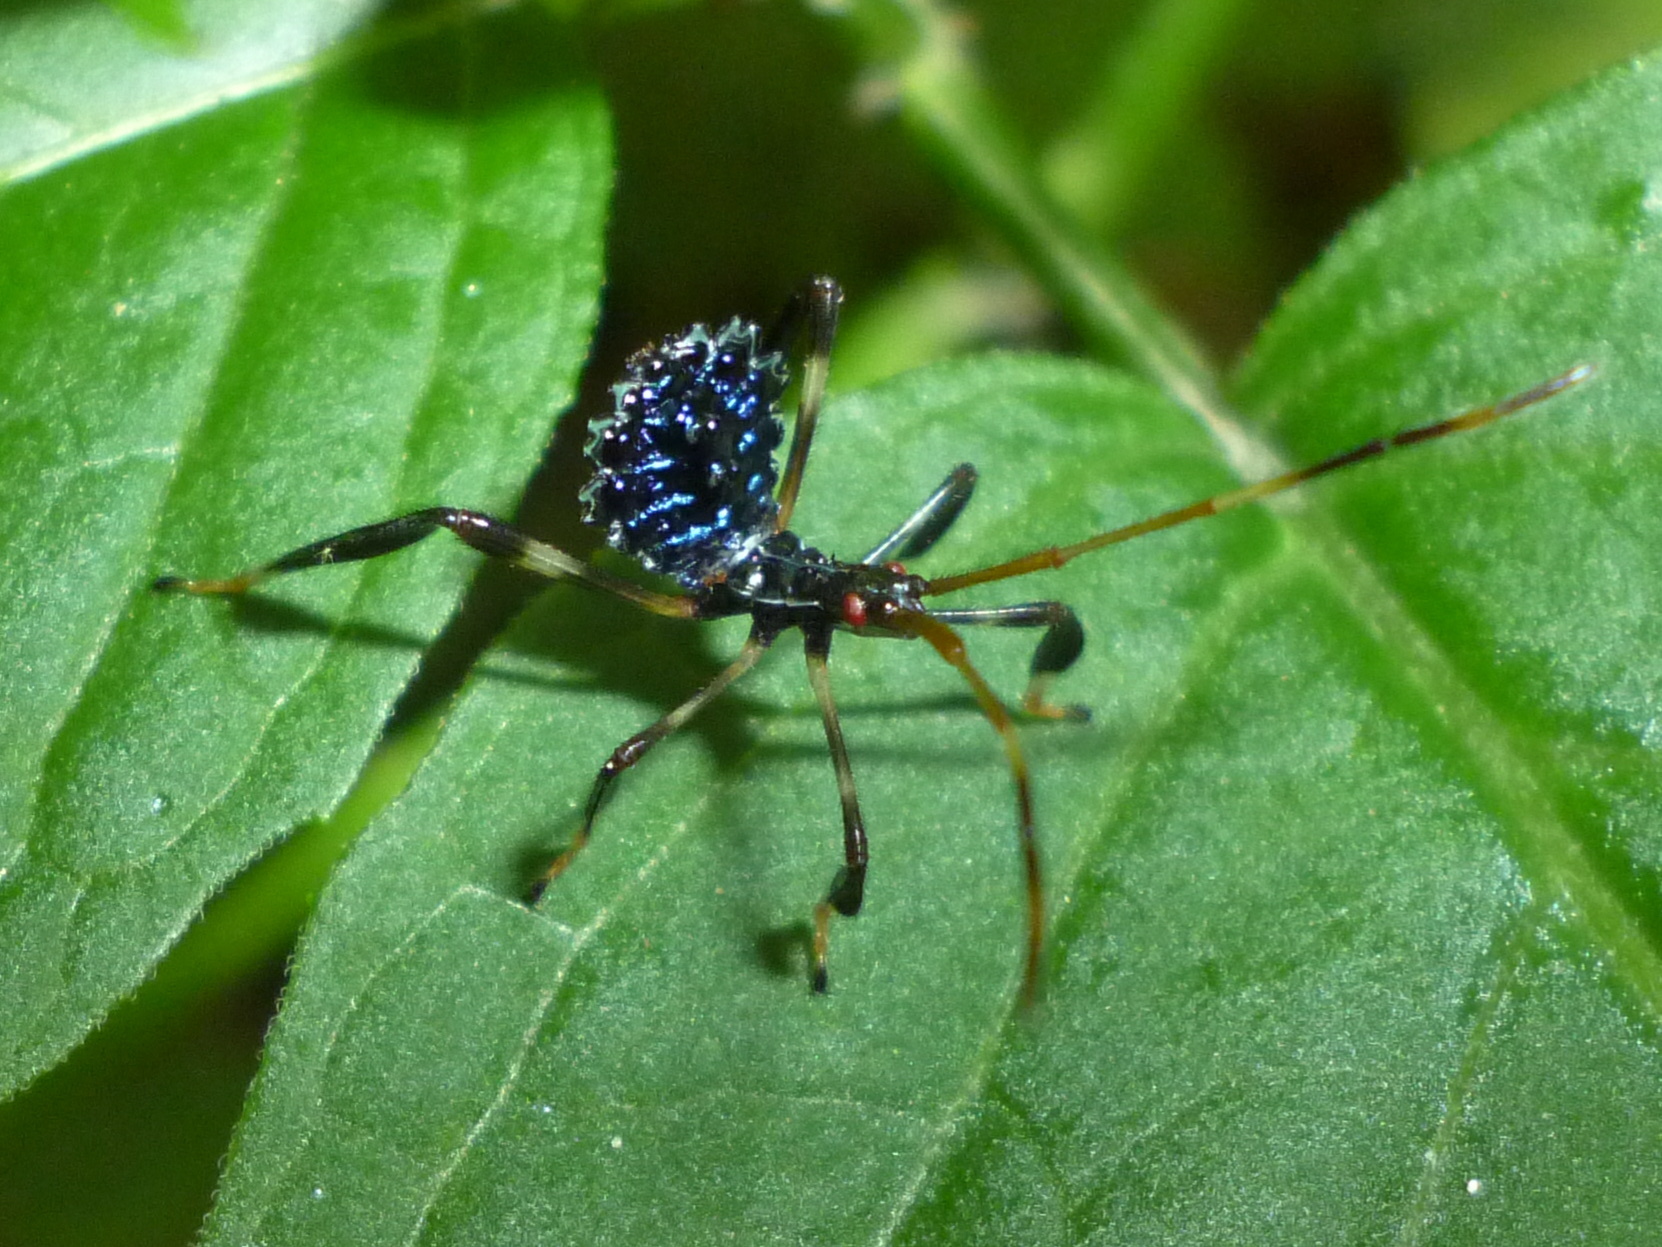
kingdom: Animalia
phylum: Arthropoda
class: Insecta
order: Hemiptera
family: Coreidae
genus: Acanthocephala
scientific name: Acanthocephala terminalis
